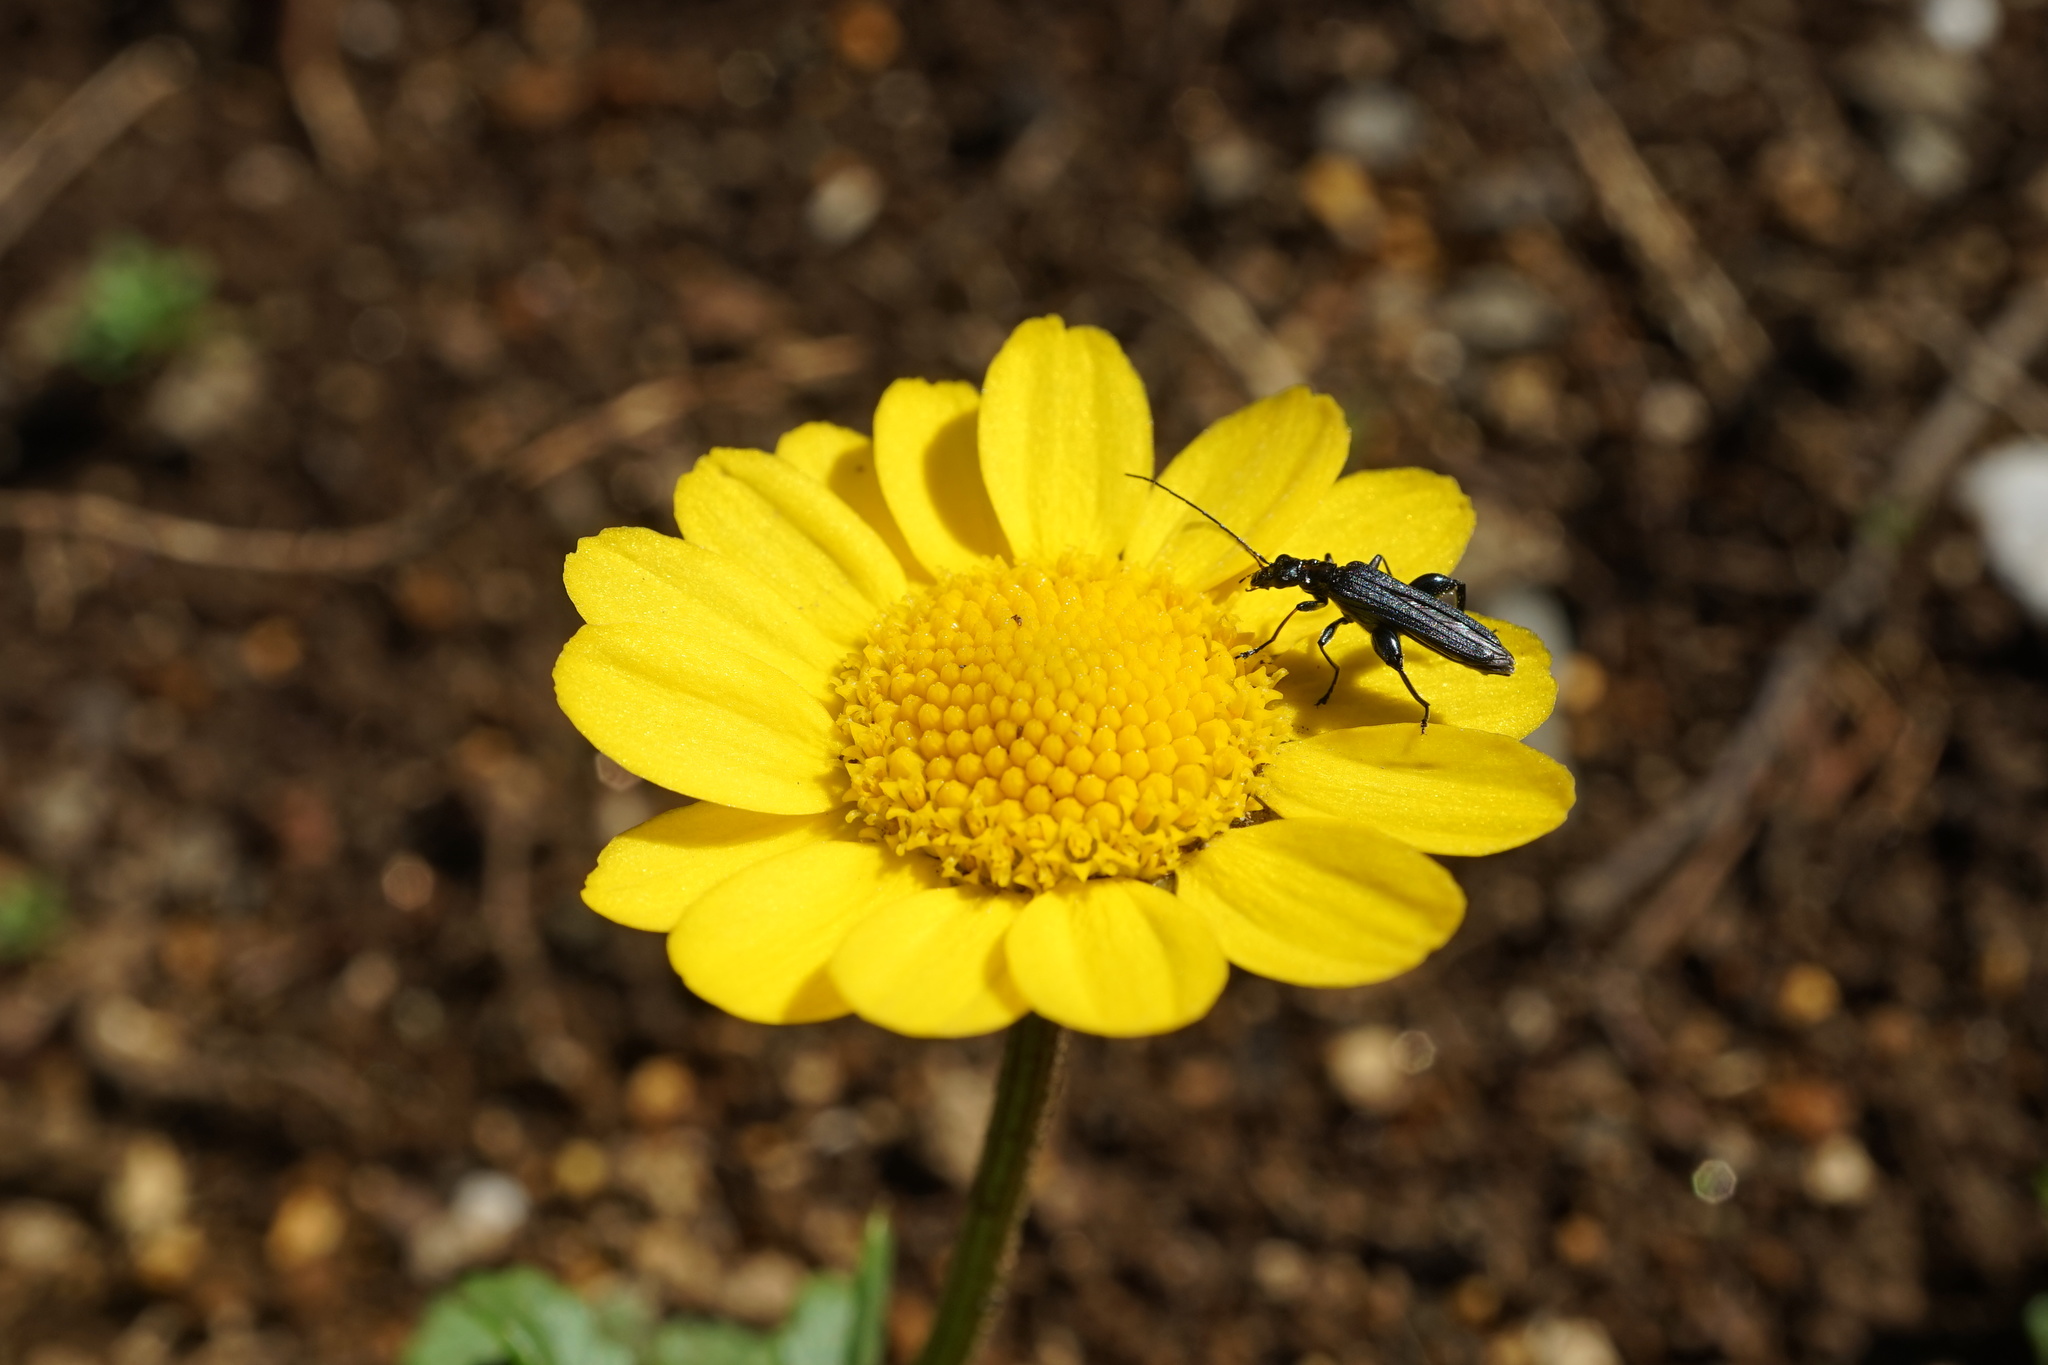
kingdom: Animalia
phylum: Arthropoda
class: Insecta
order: Coleoptera
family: Oedemeridae
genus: Oedemera
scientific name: Oedemera
